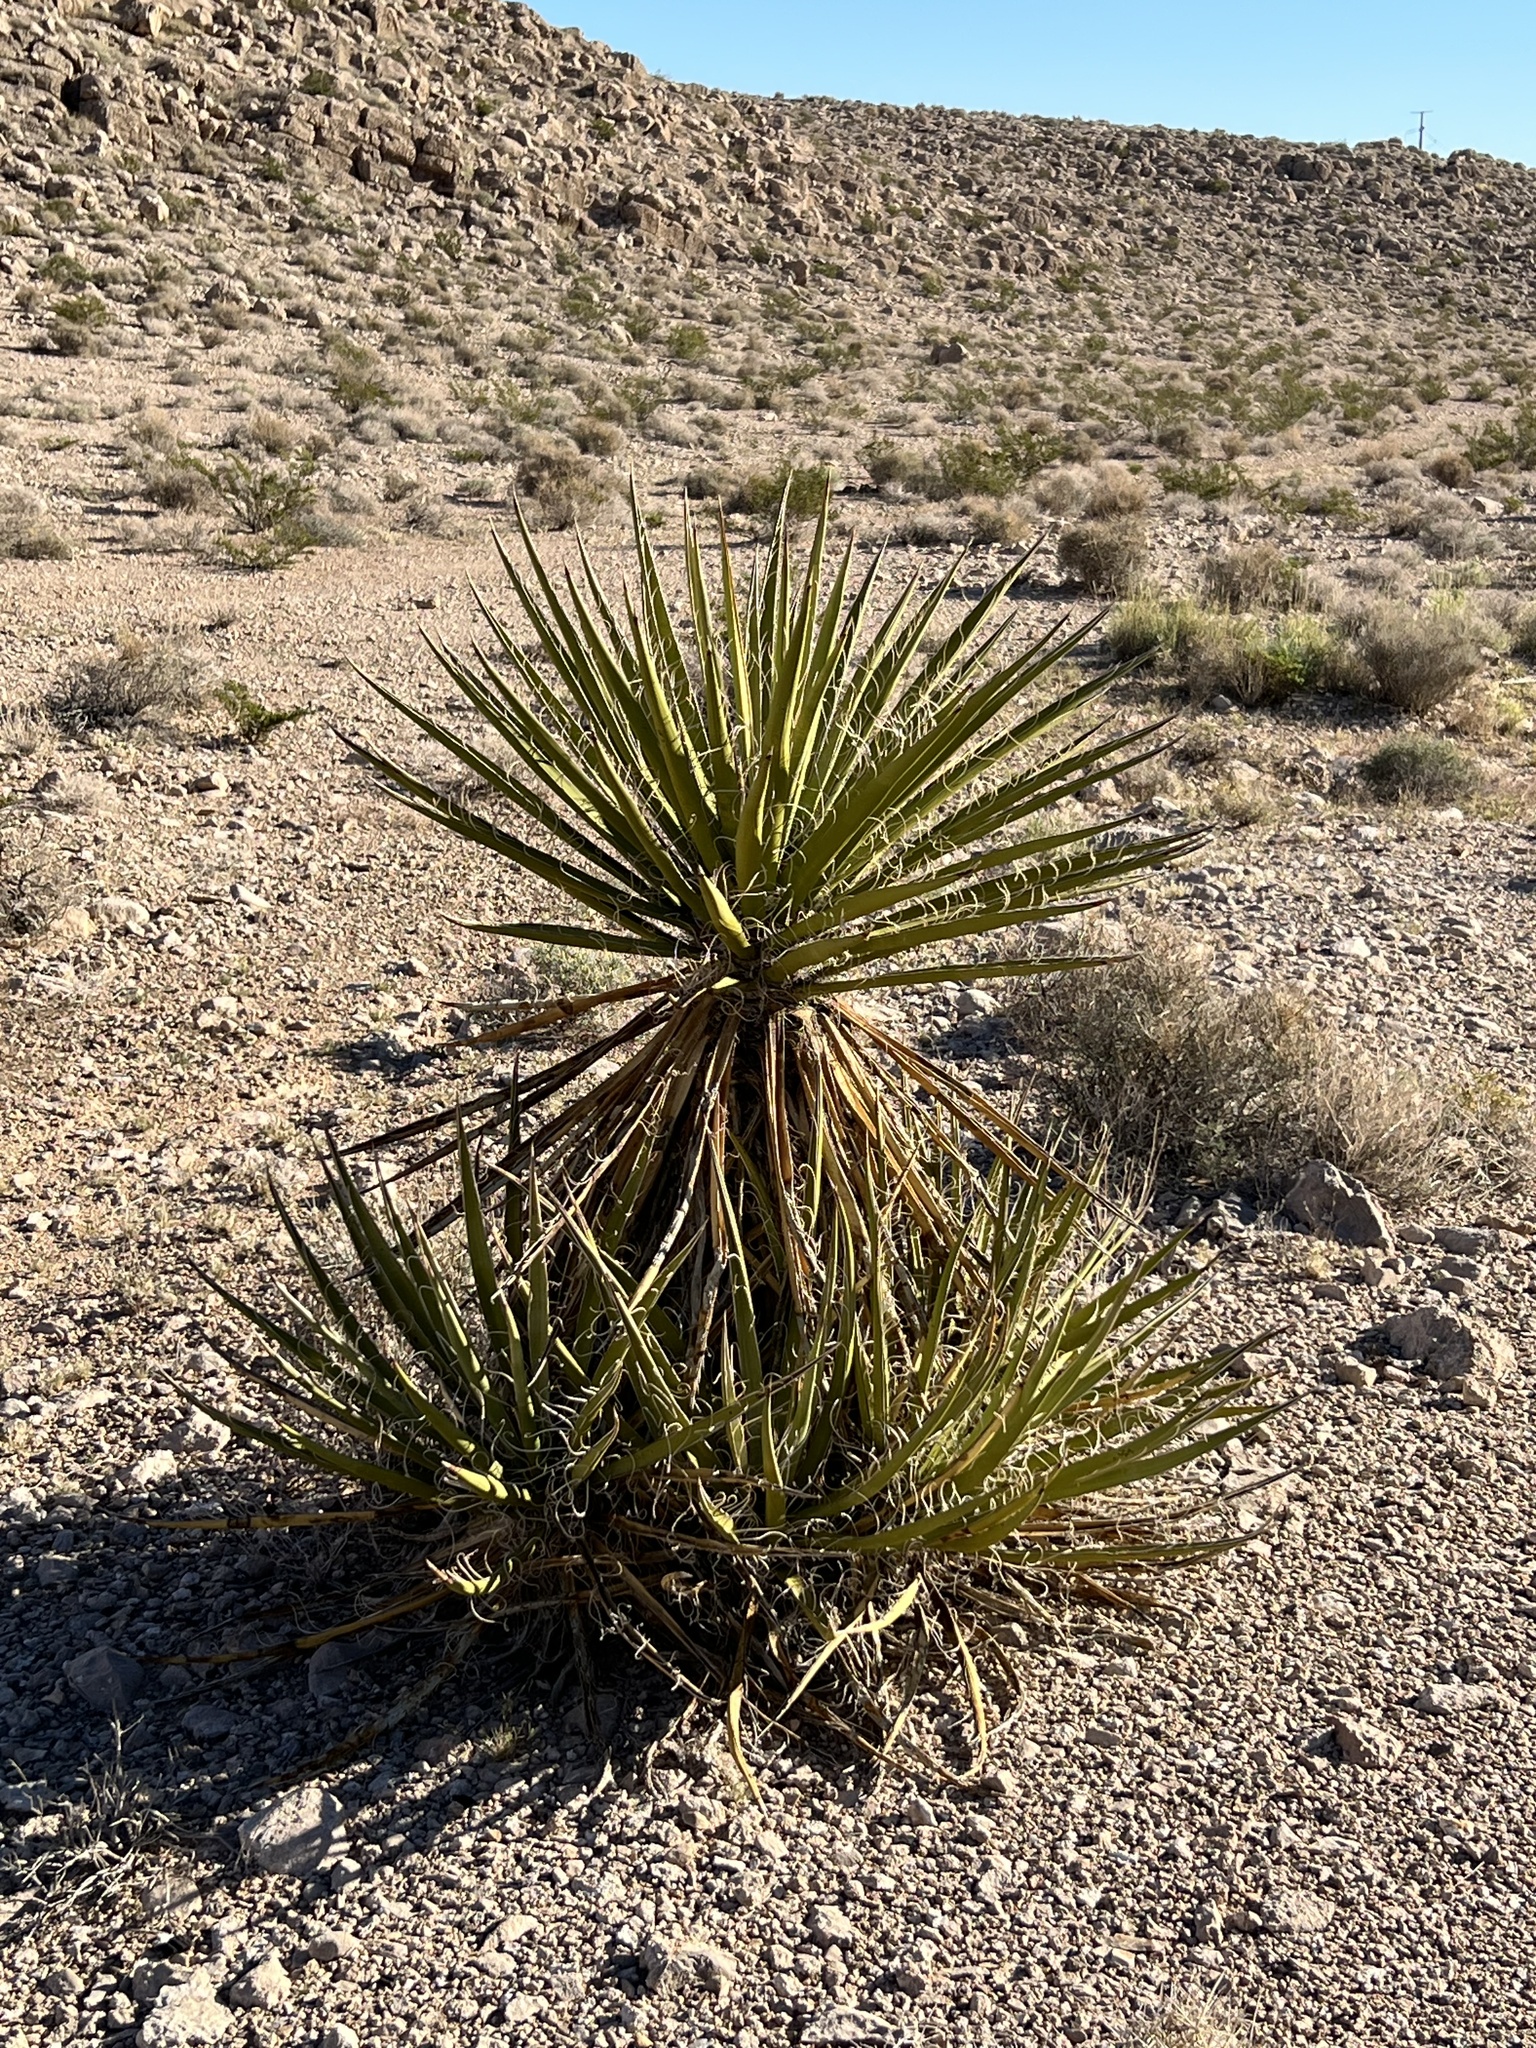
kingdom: Plantae
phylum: Tracheophyta
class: Liliopsida
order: Asparagales
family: Asparagaceae
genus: Yucca
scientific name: Yucca schidigera
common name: Mojave yucca
